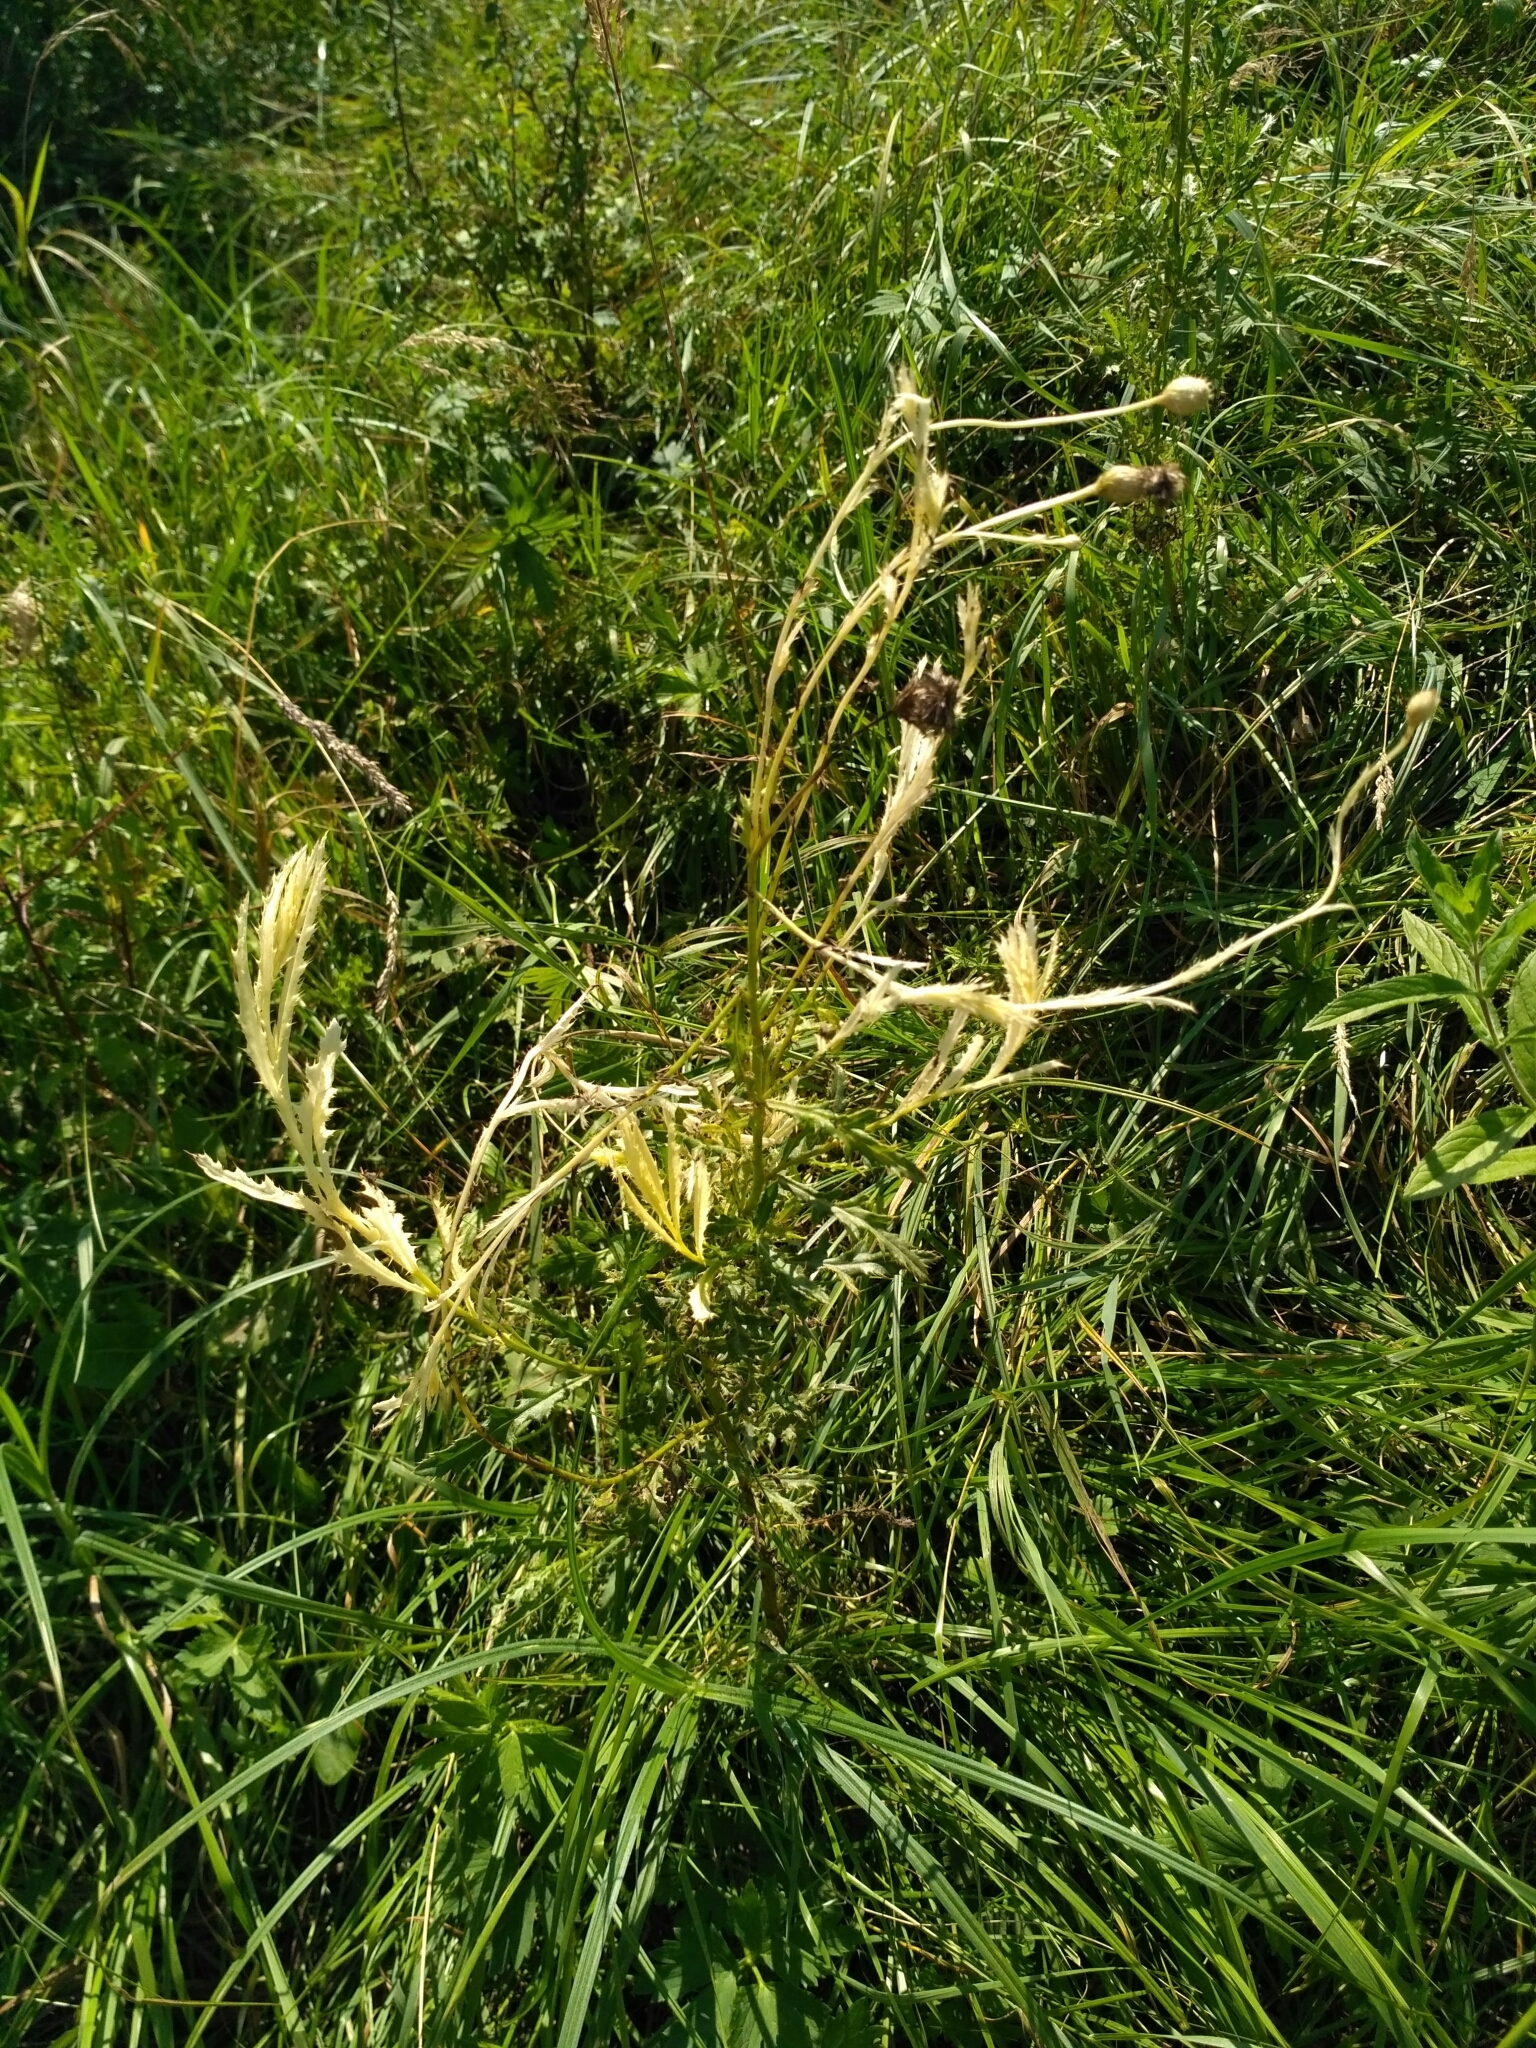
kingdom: Animalia
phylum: Arthropoda
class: Insecta
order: Diptera
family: Tephritidae
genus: Urophora
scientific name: Urophora cardui
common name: Fruit fly
